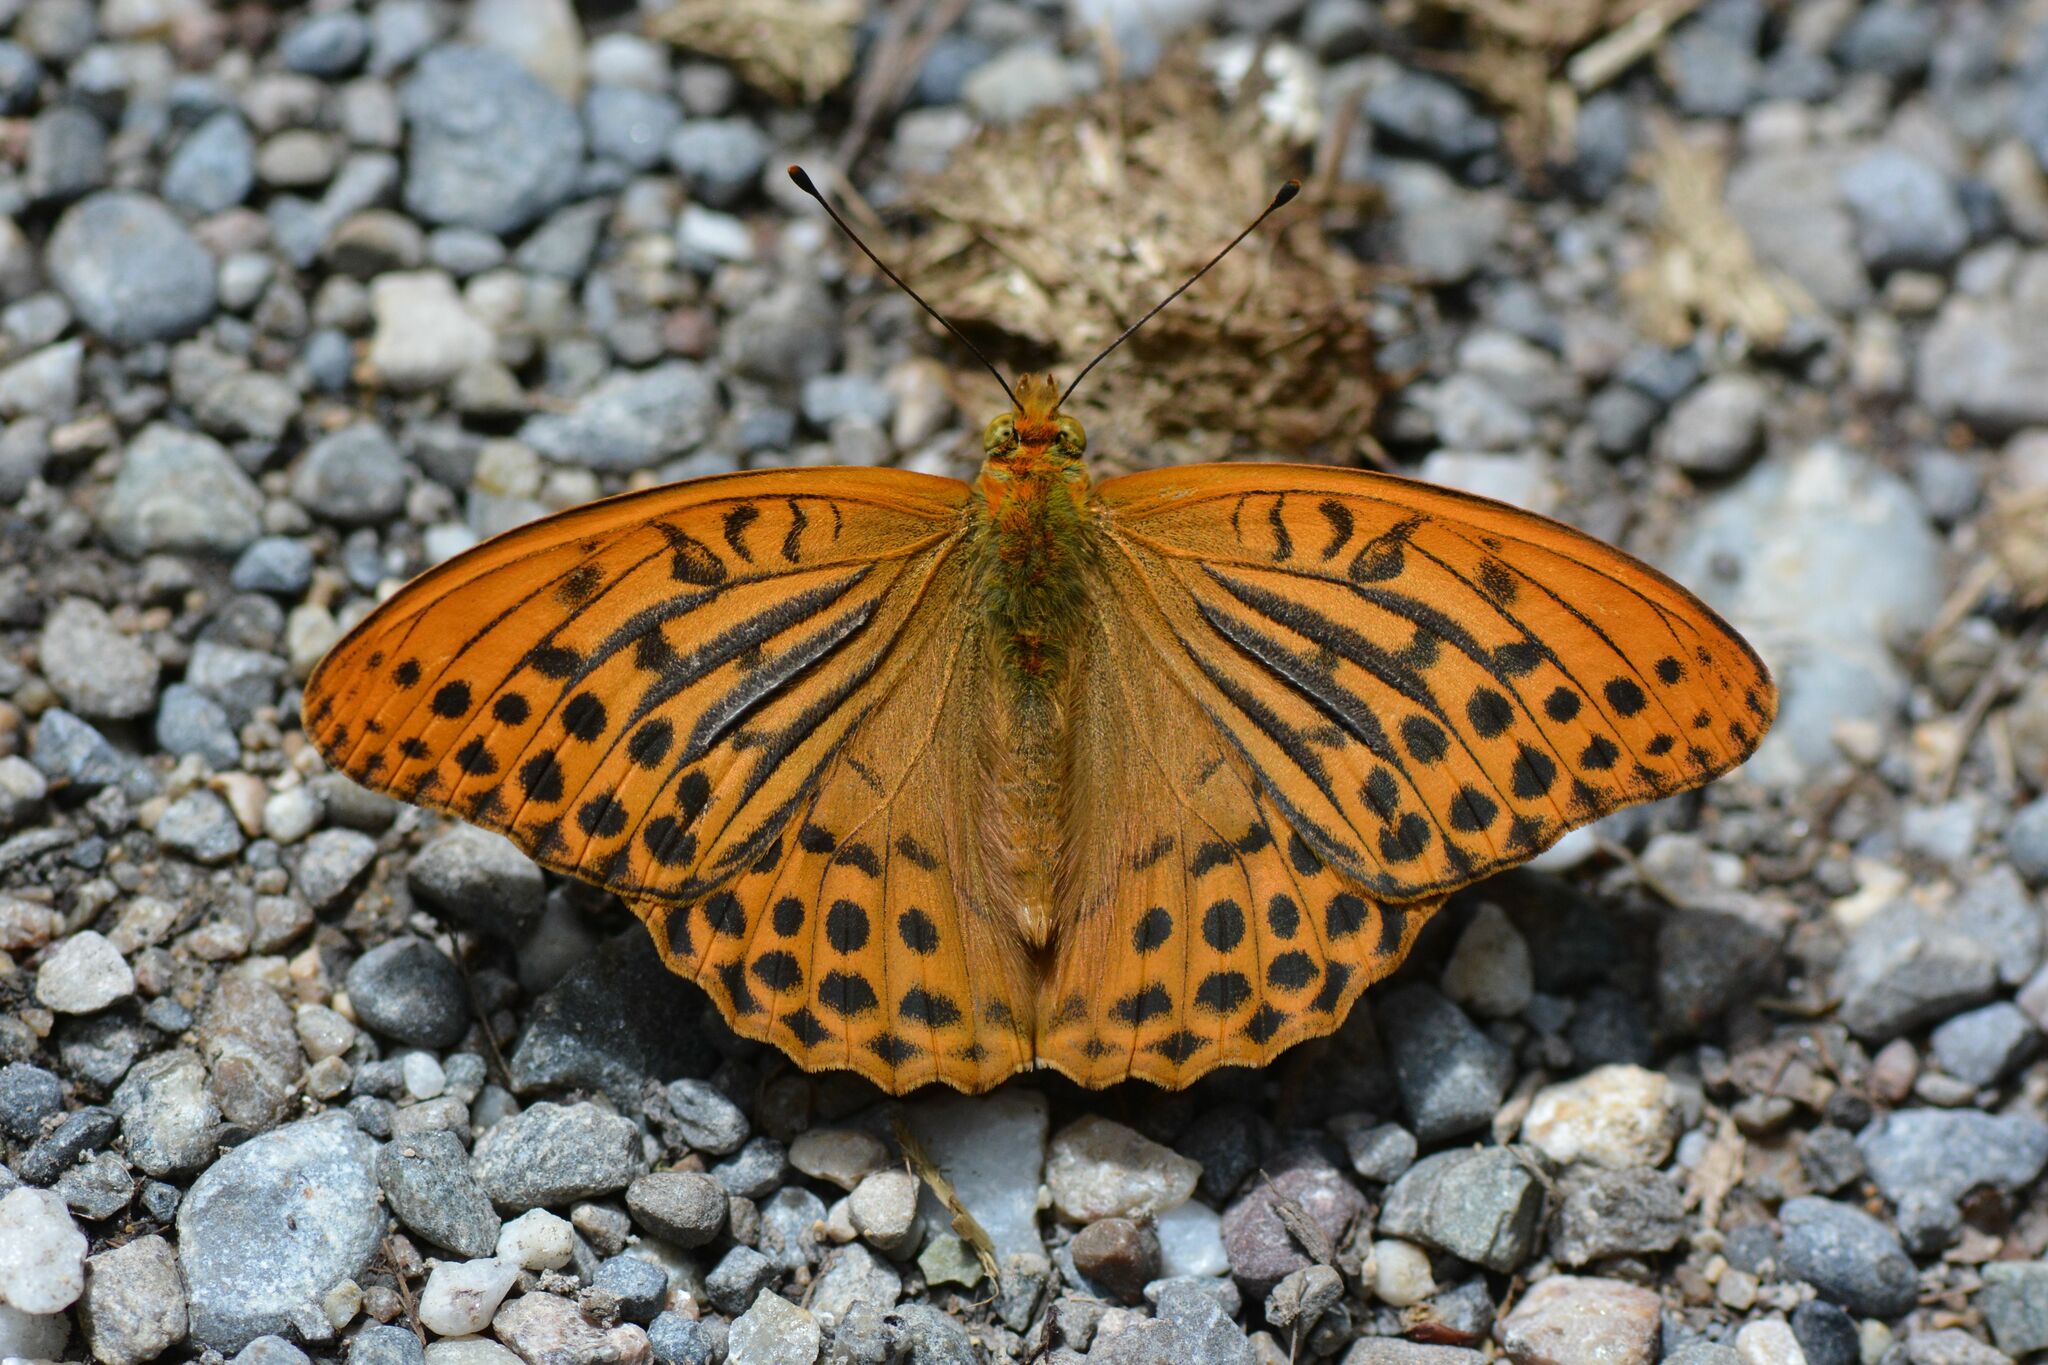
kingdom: Animalia
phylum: Arthropoda
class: Insecta
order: Lepidoptera
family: Nymphalidae
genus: Argynnis
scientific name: Argynnis paphia
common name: Silver-washed fritillary
